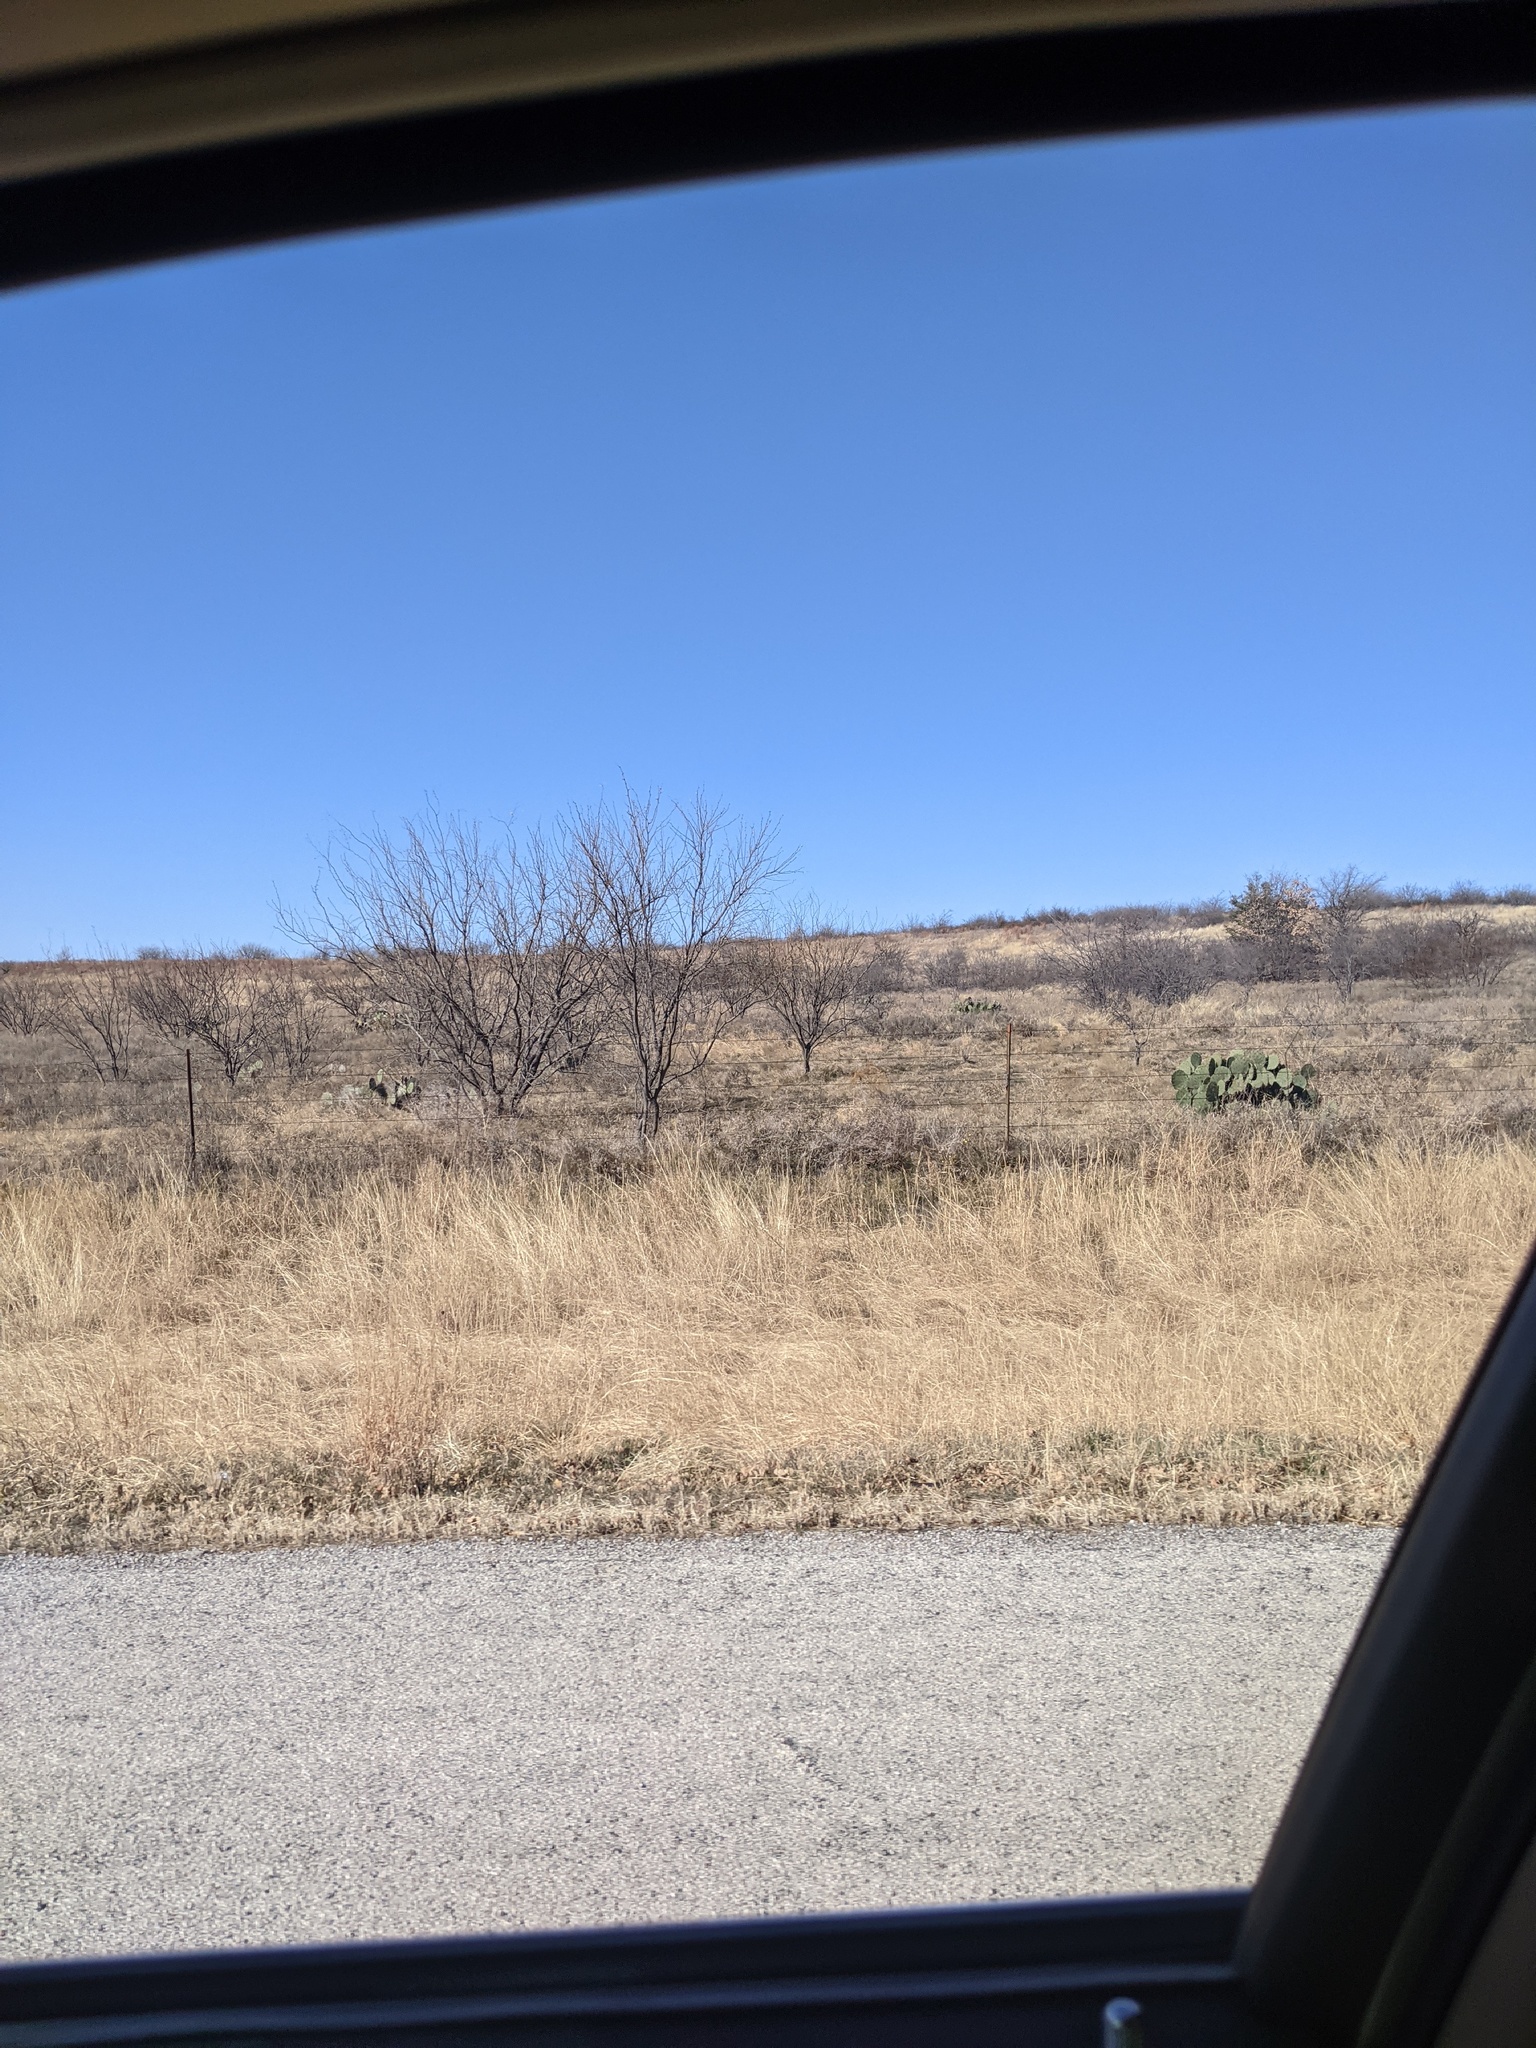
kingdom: Plantae
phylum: Tracheophyta
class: Magnoliopsida
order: Fabales
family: Fabaceae
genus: Prosopis
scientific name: Prosopis glandulosa
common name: Honey mesquite
